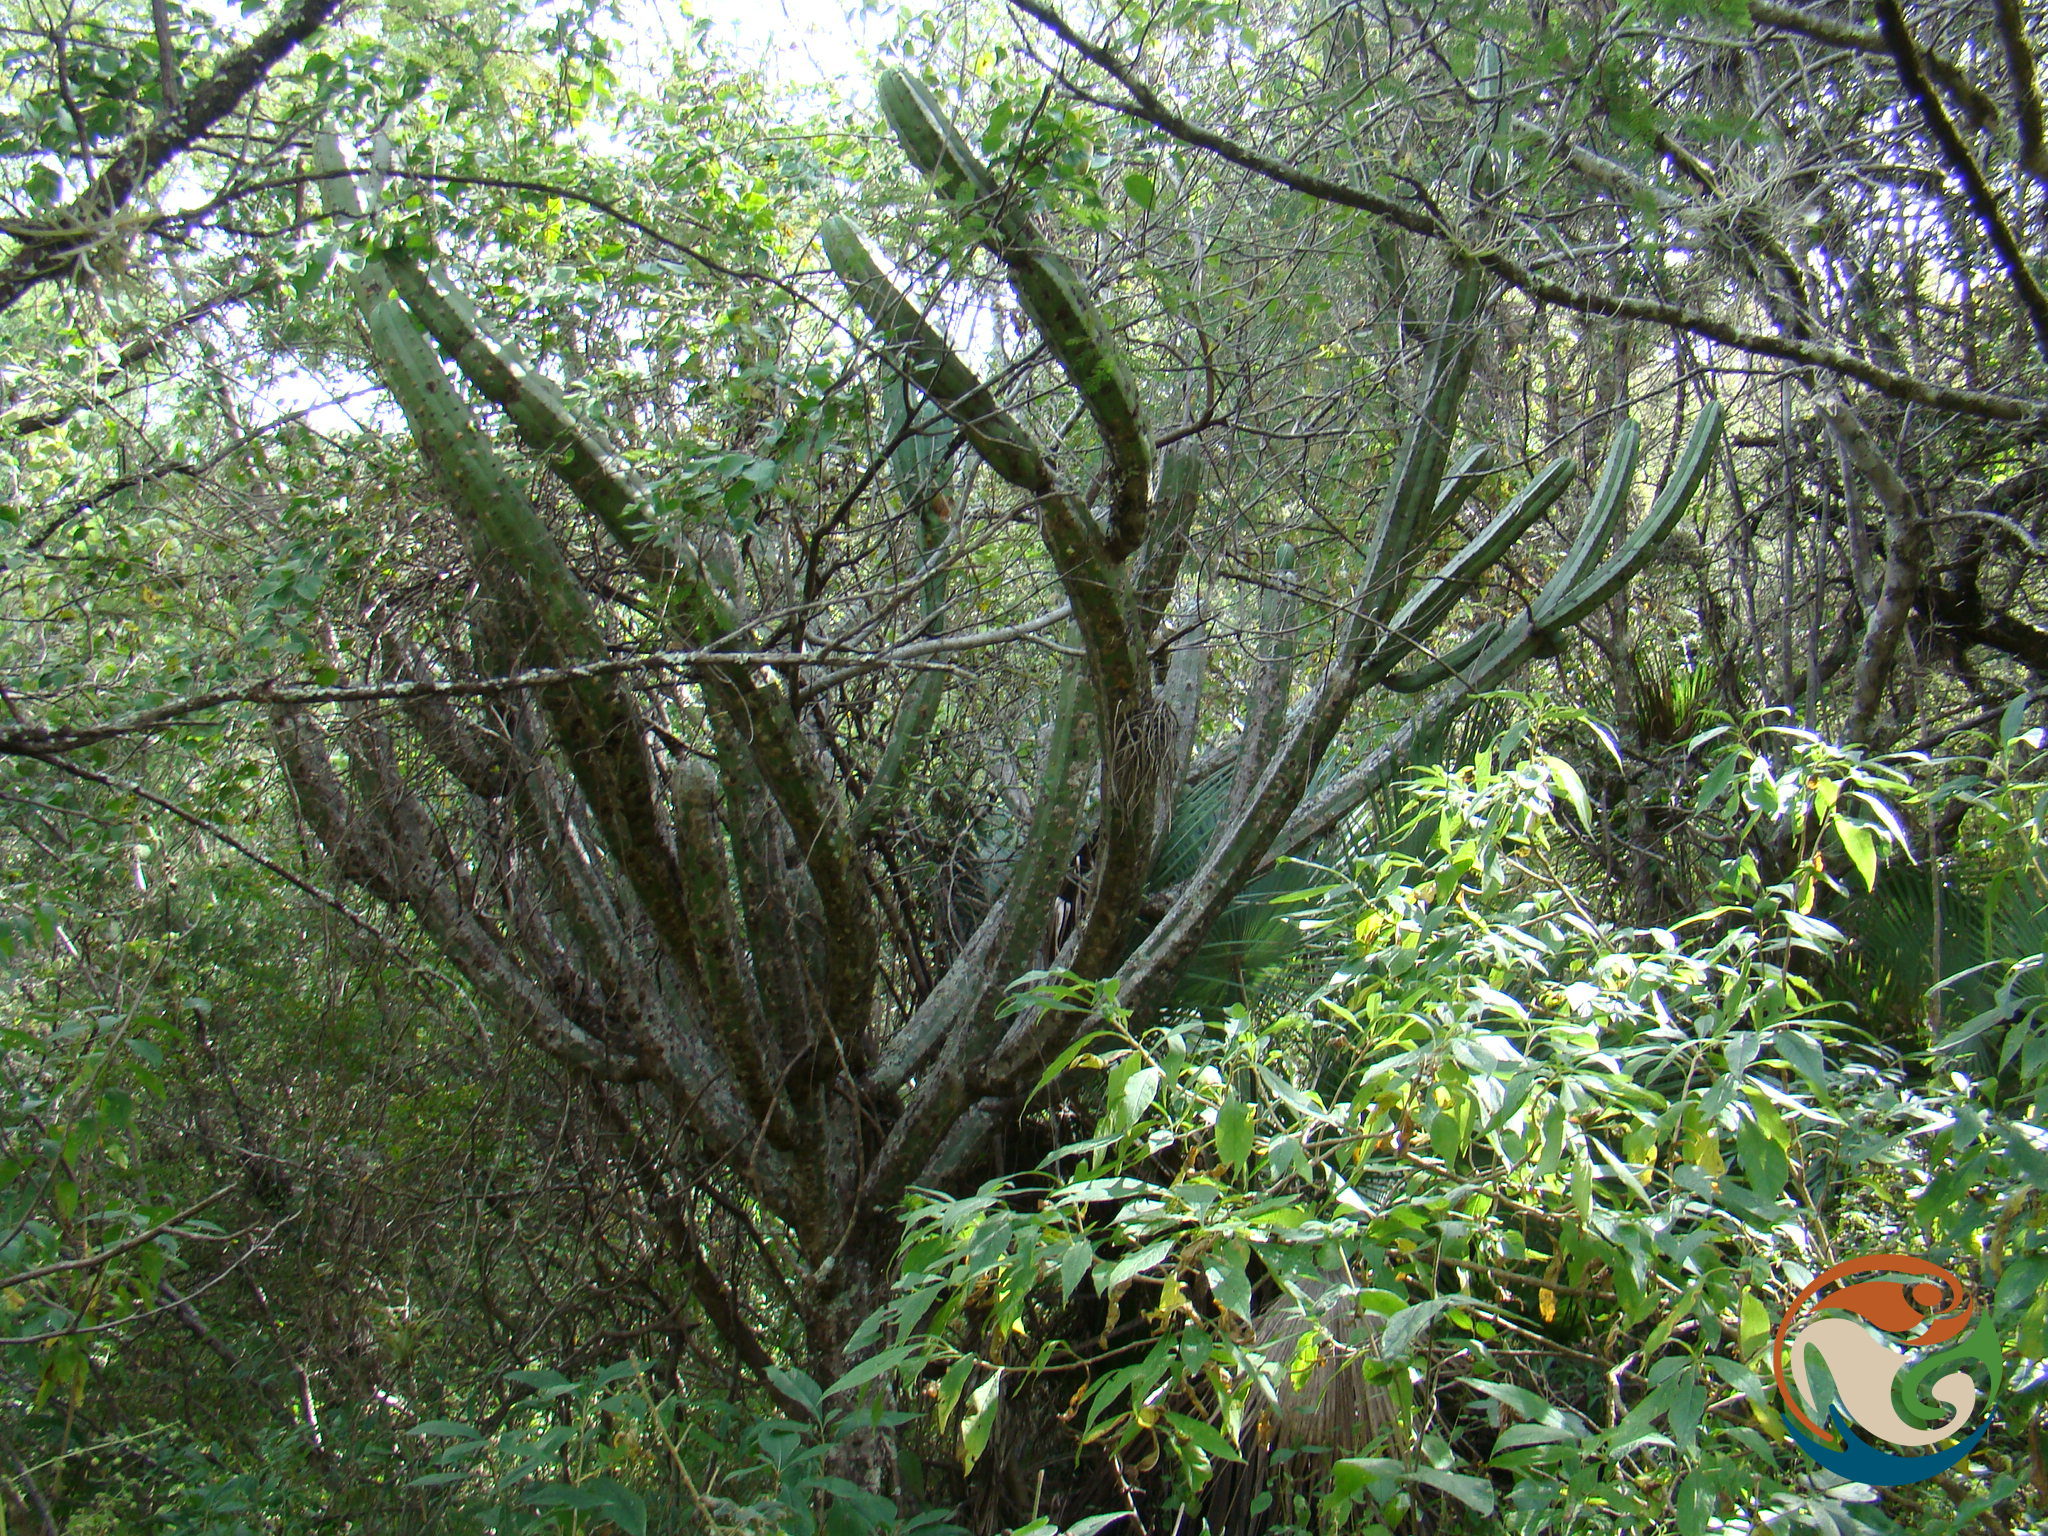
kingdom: Plantae
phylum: Tracheophyta
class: Magnoliopsida
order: Caryophyllales
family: Cactaceae
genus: Stenocereus
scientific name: Stenocereus pruinosus
